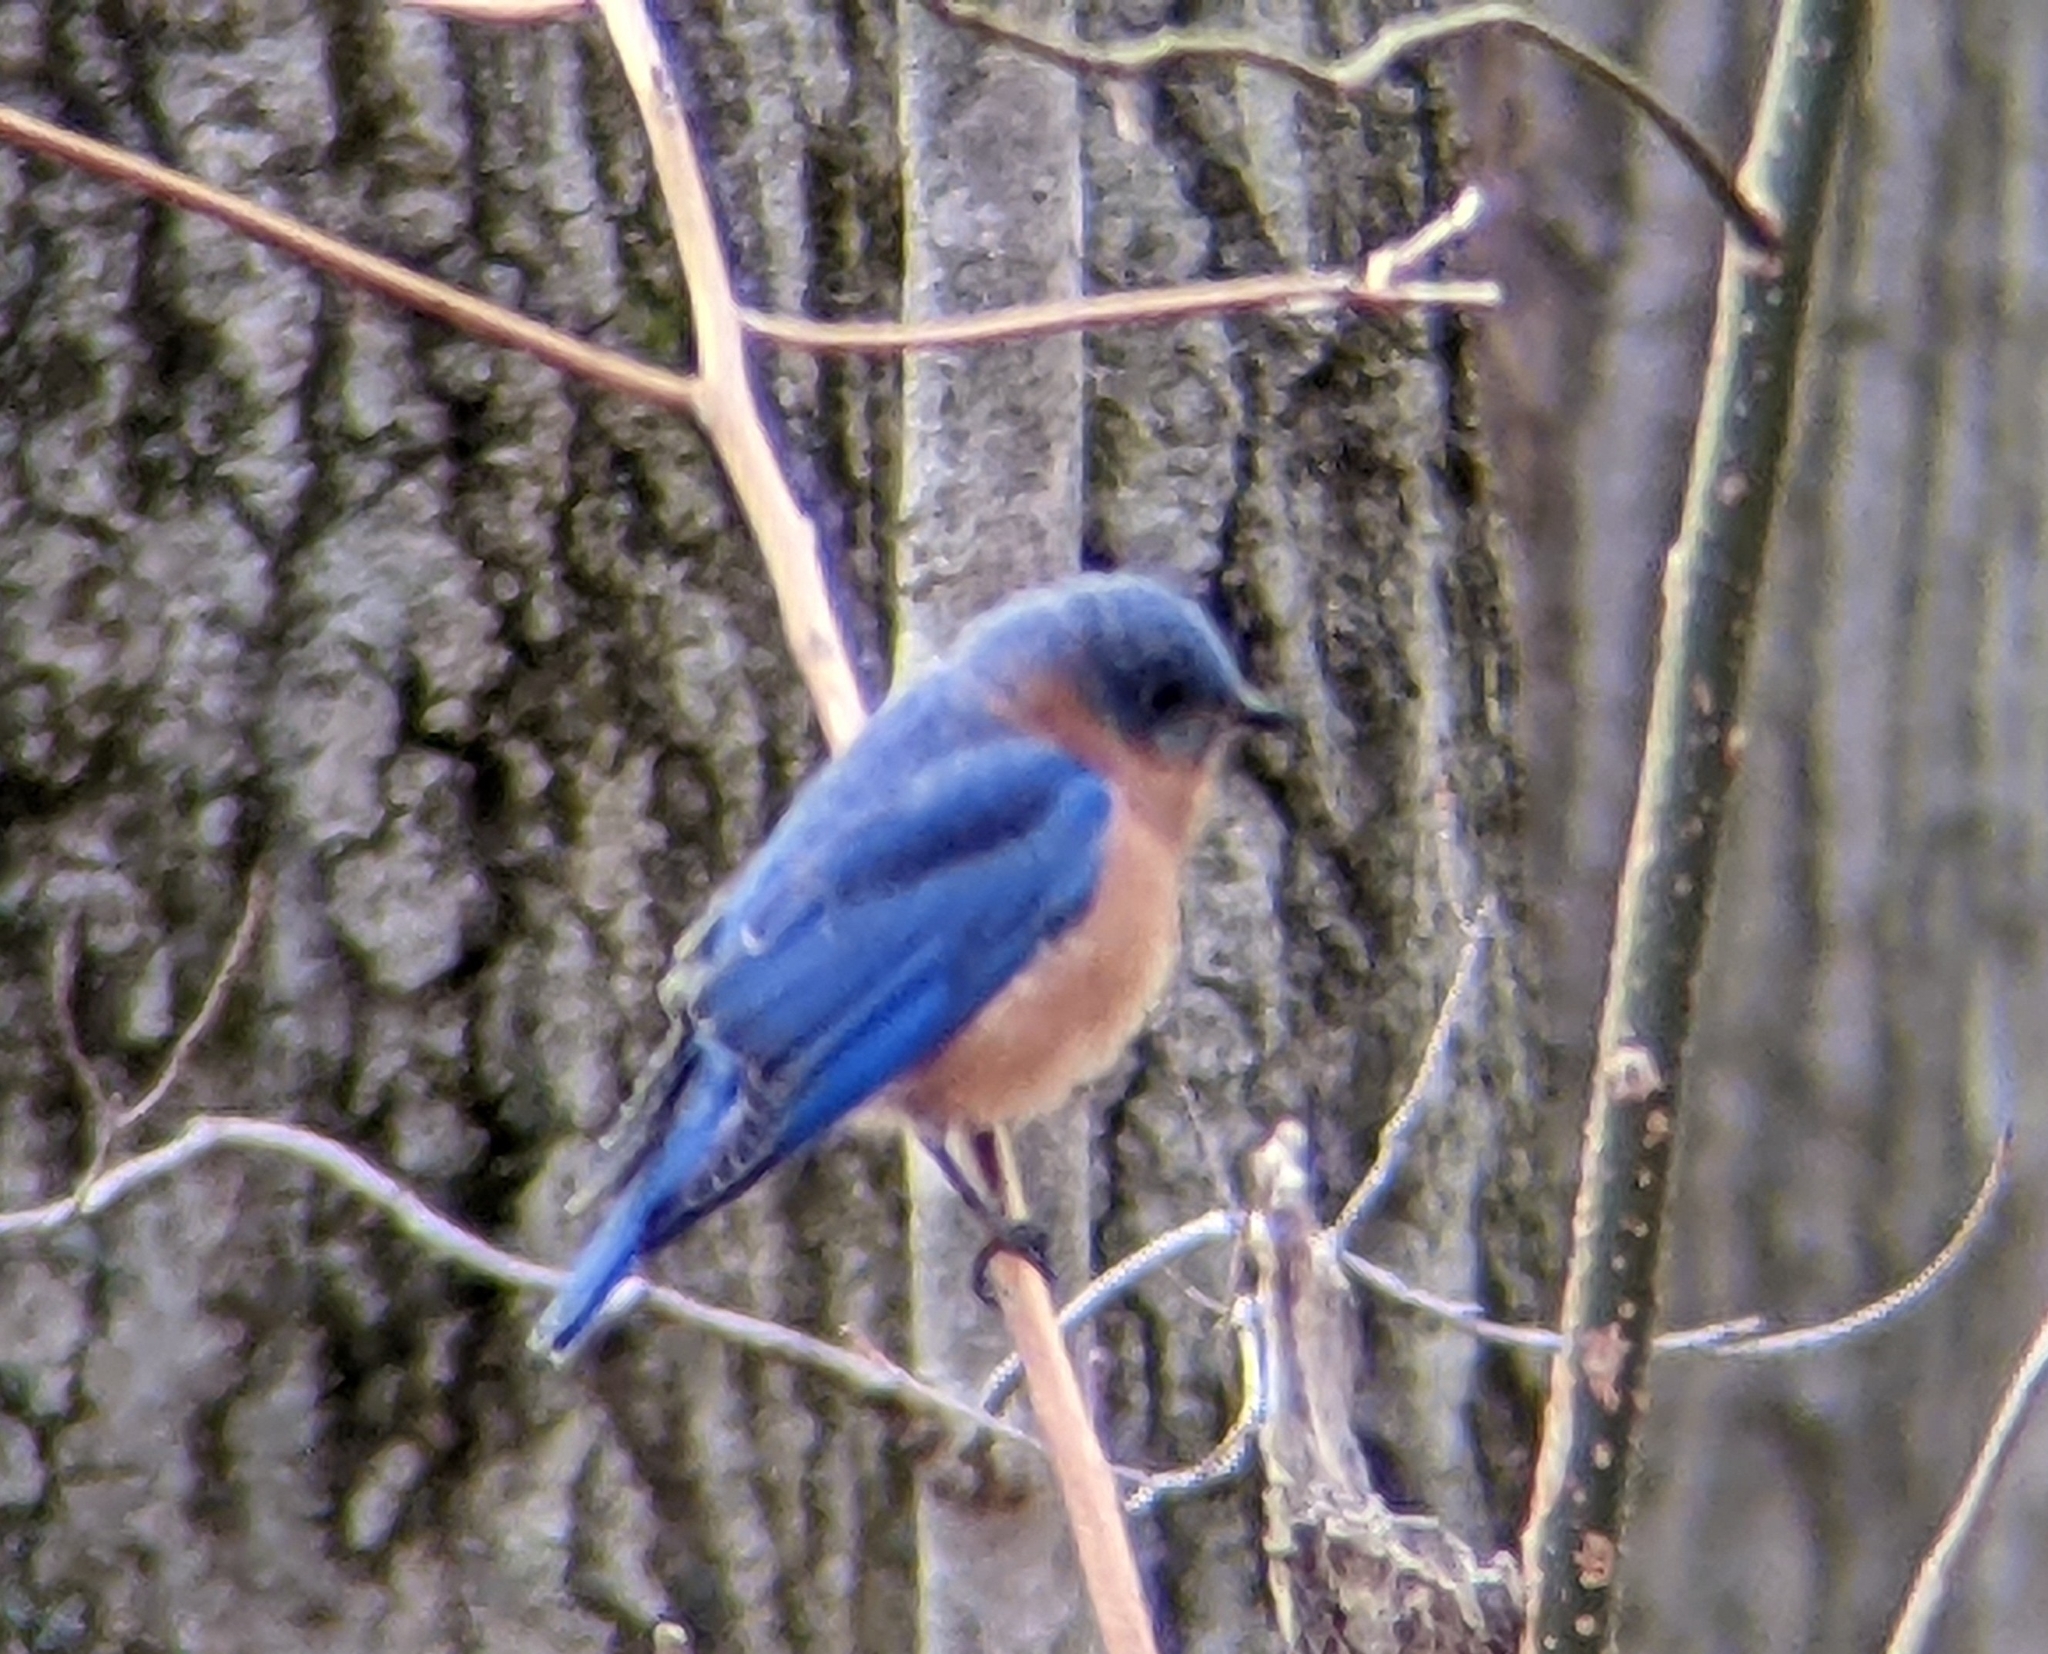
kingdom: Animalia
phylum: Chordata
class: Aves
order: Passeriformes
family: Turdidae
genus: Sialia
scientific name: Sialia sialis
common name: Eastern bluebird
